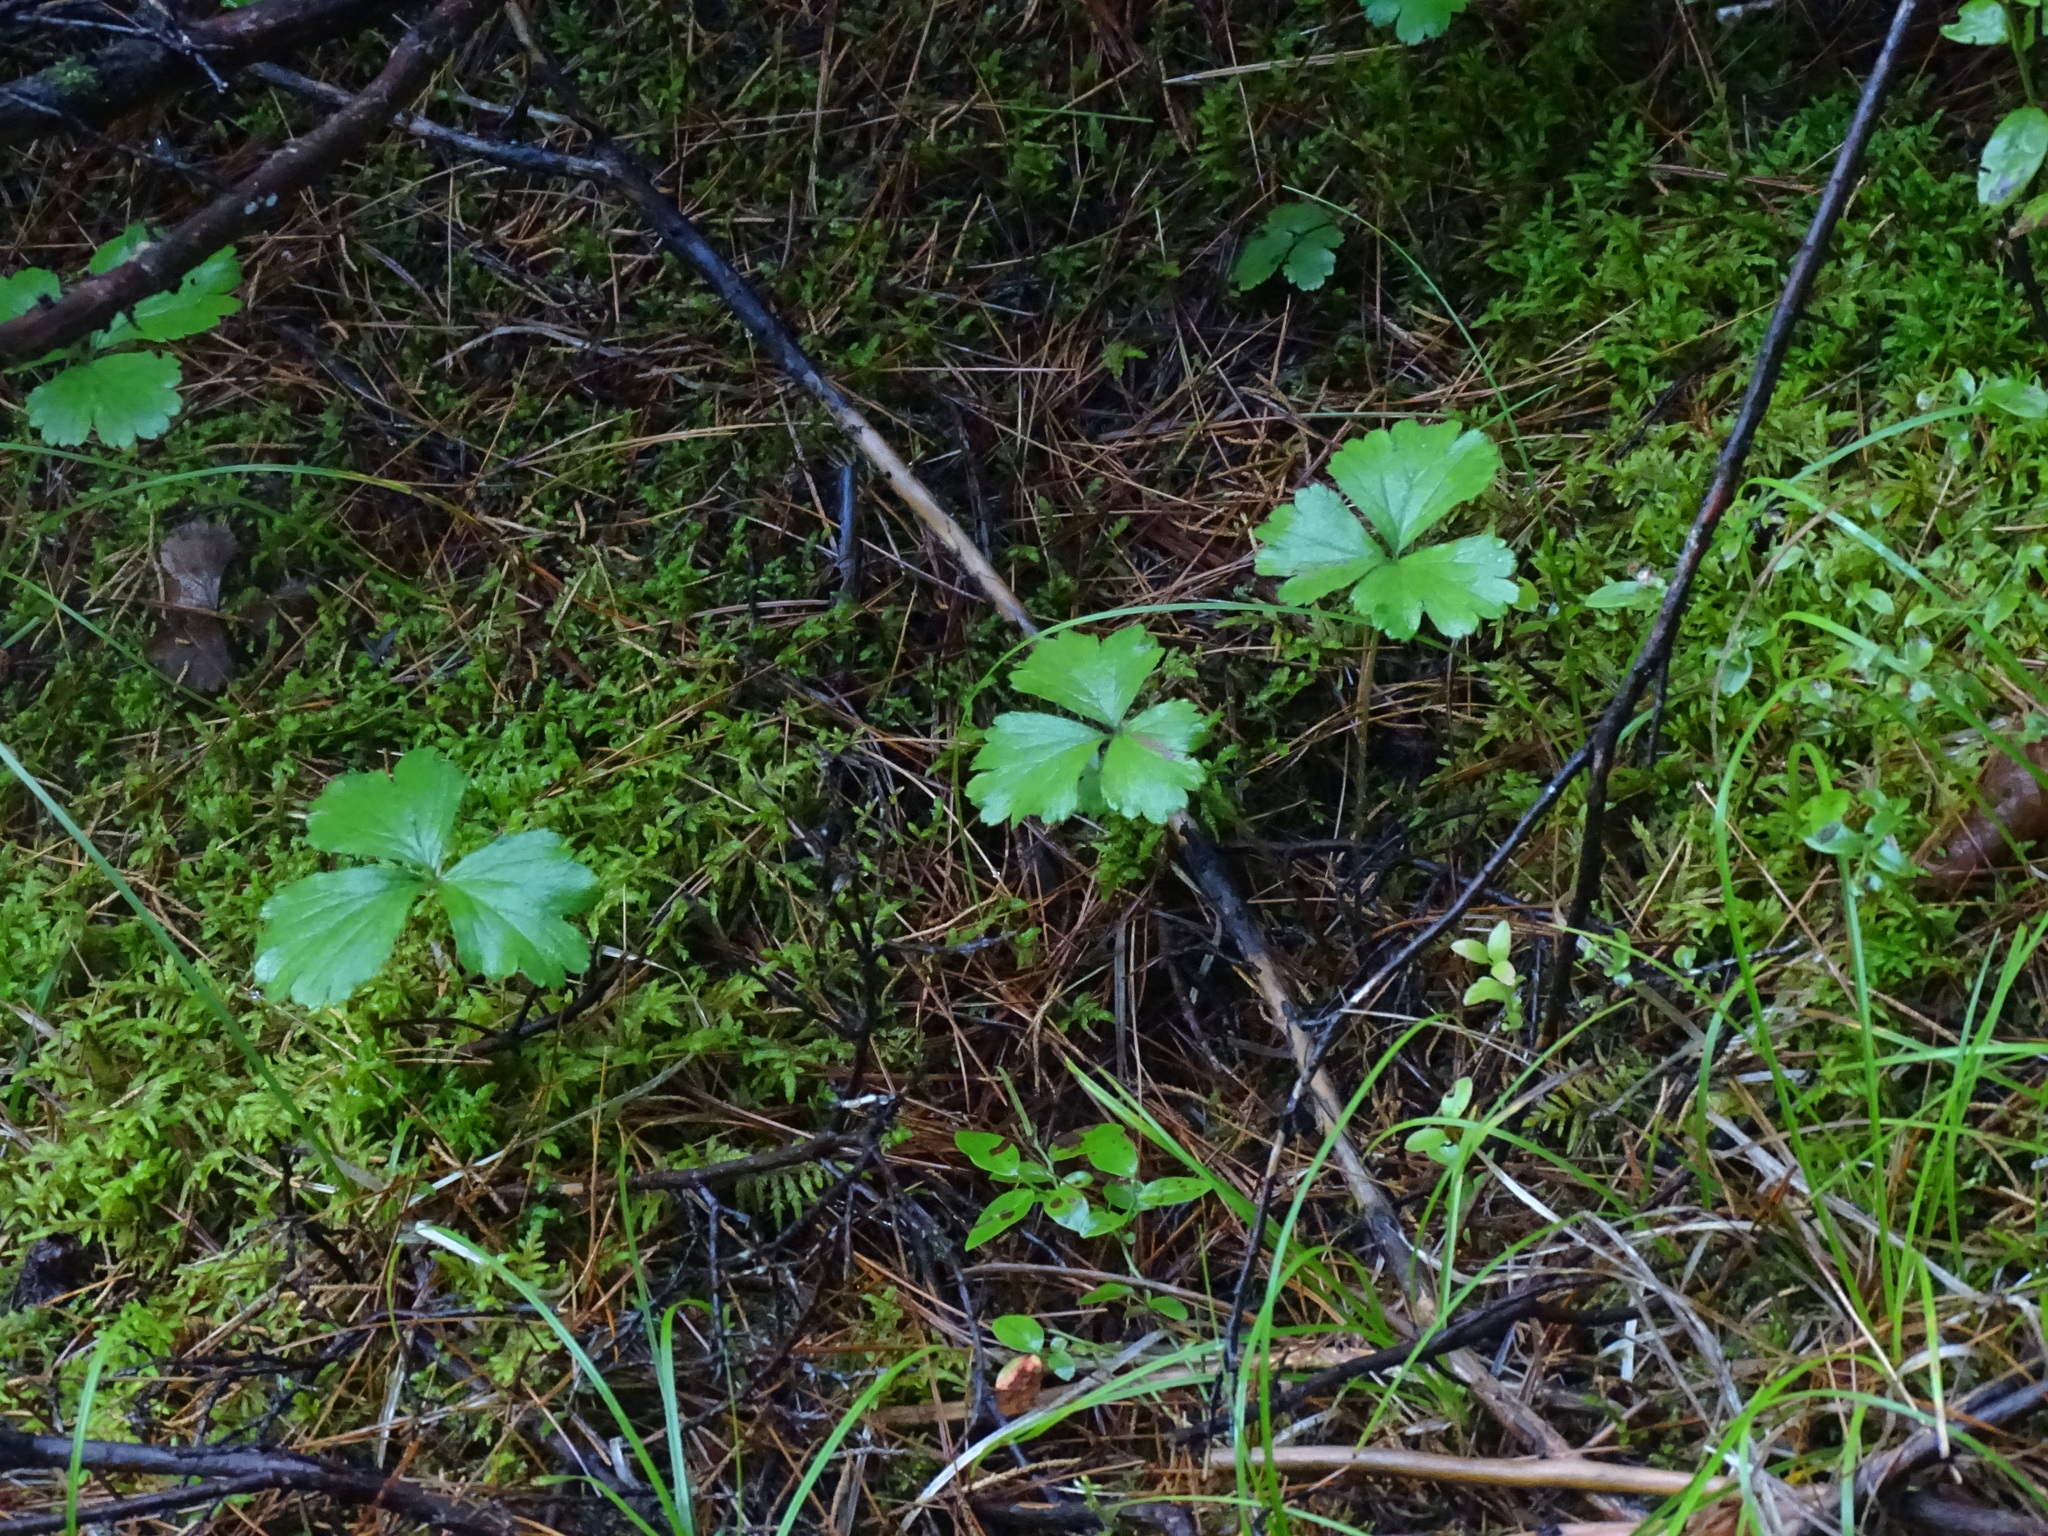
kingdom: Plantae
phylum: Tracheophyta
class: Magnoliopsida
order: Rosales
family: Rosaceae
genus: Geum
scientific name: Geum fragarioides
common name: Appalachian barren strawberry
